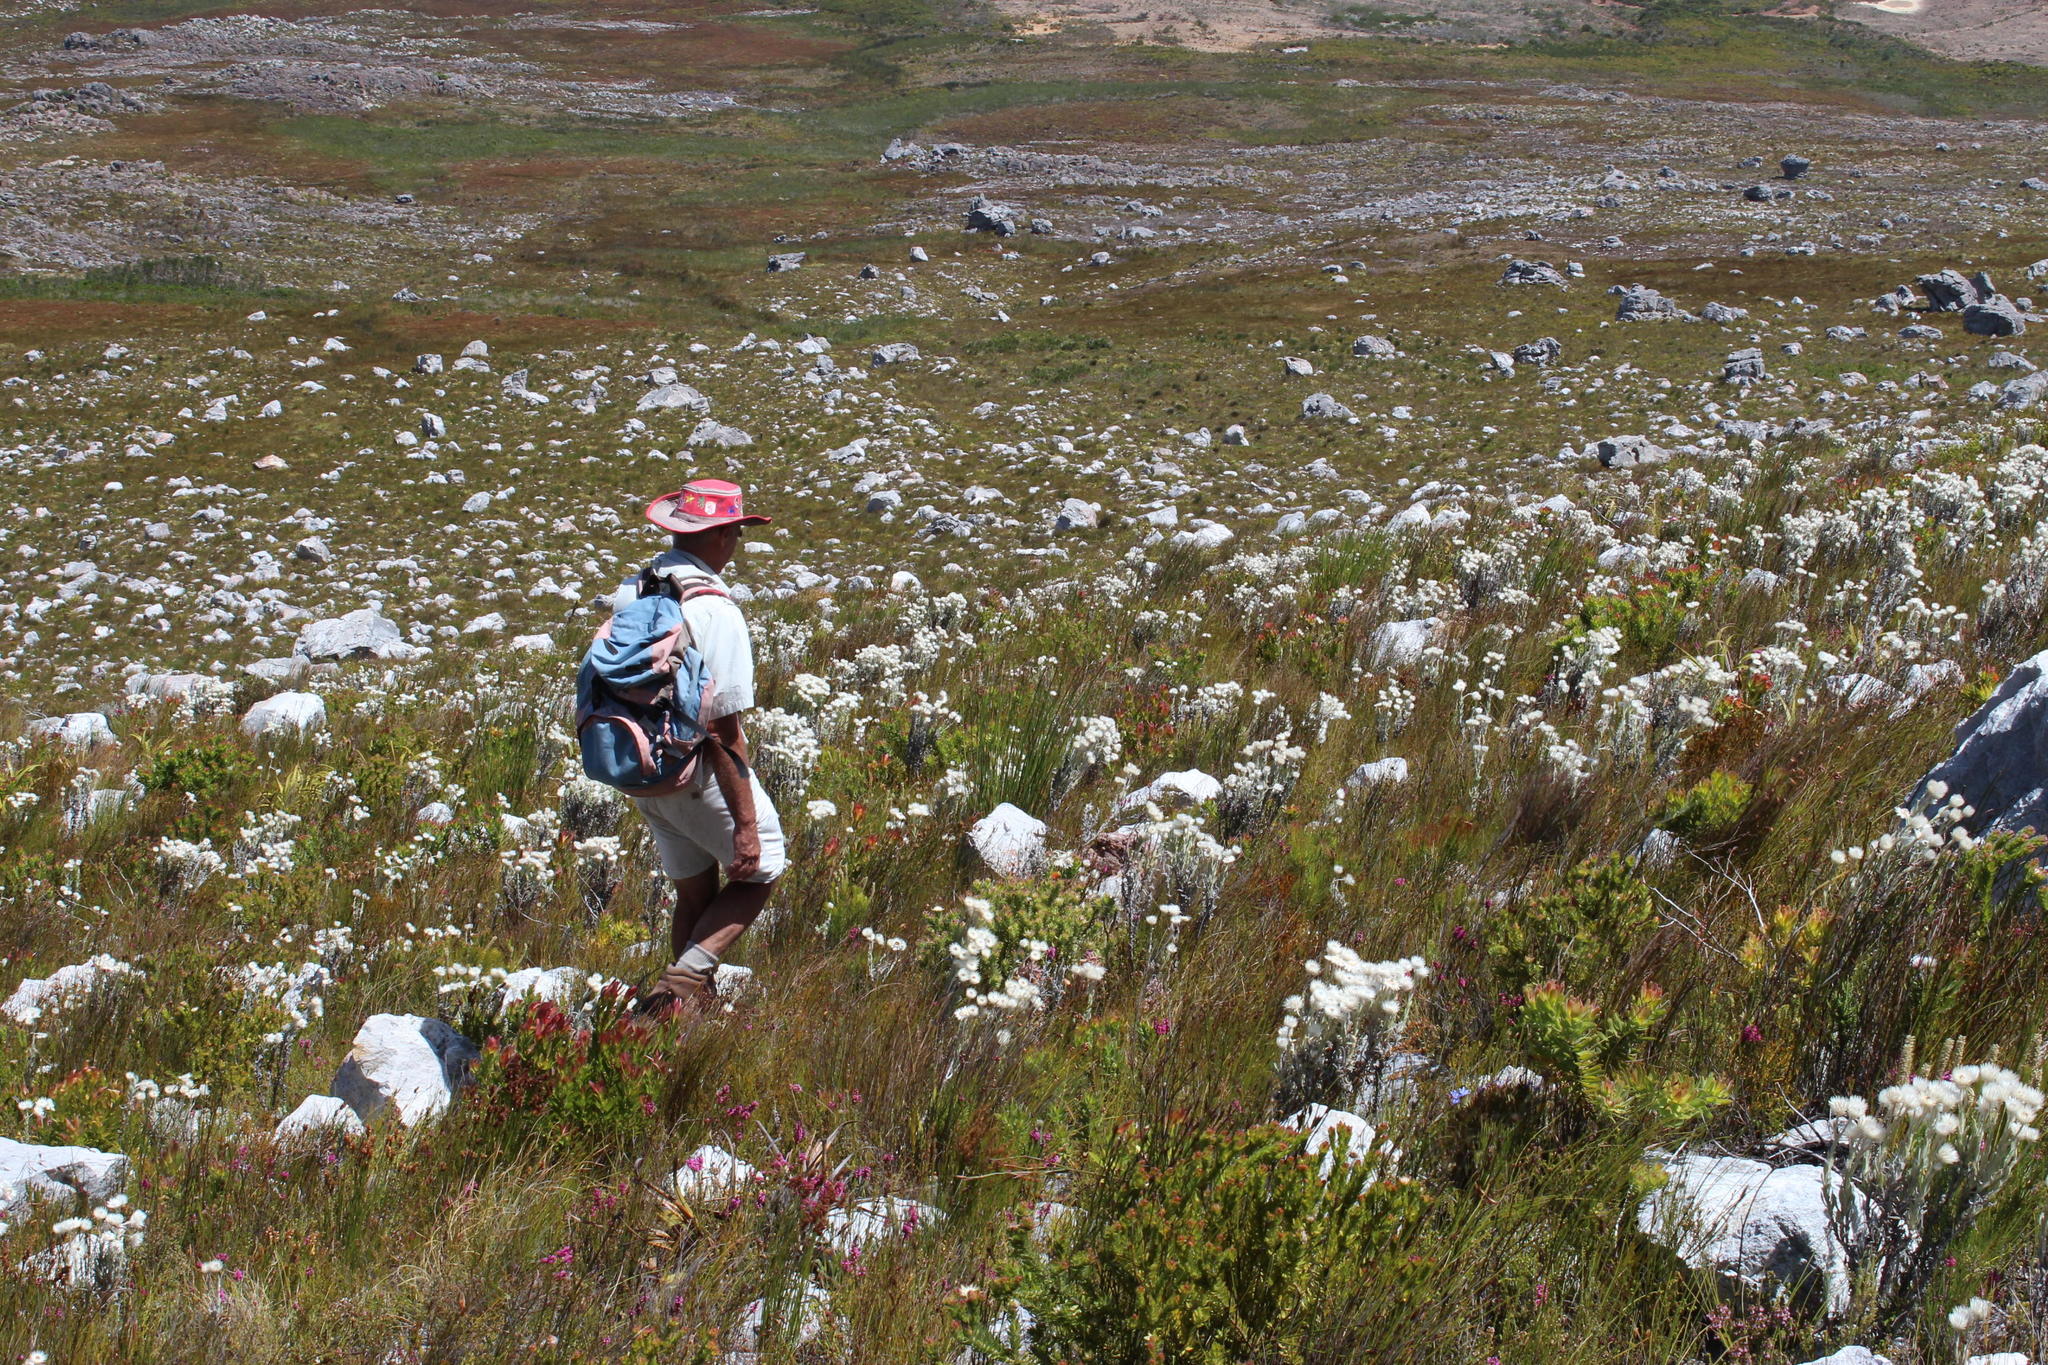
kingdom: Plantae
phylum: Tracheophyta
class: Magnoliopsida
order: Asterales
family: Asteraceae
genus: Syncarpha
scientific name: Syncarpha vestita
